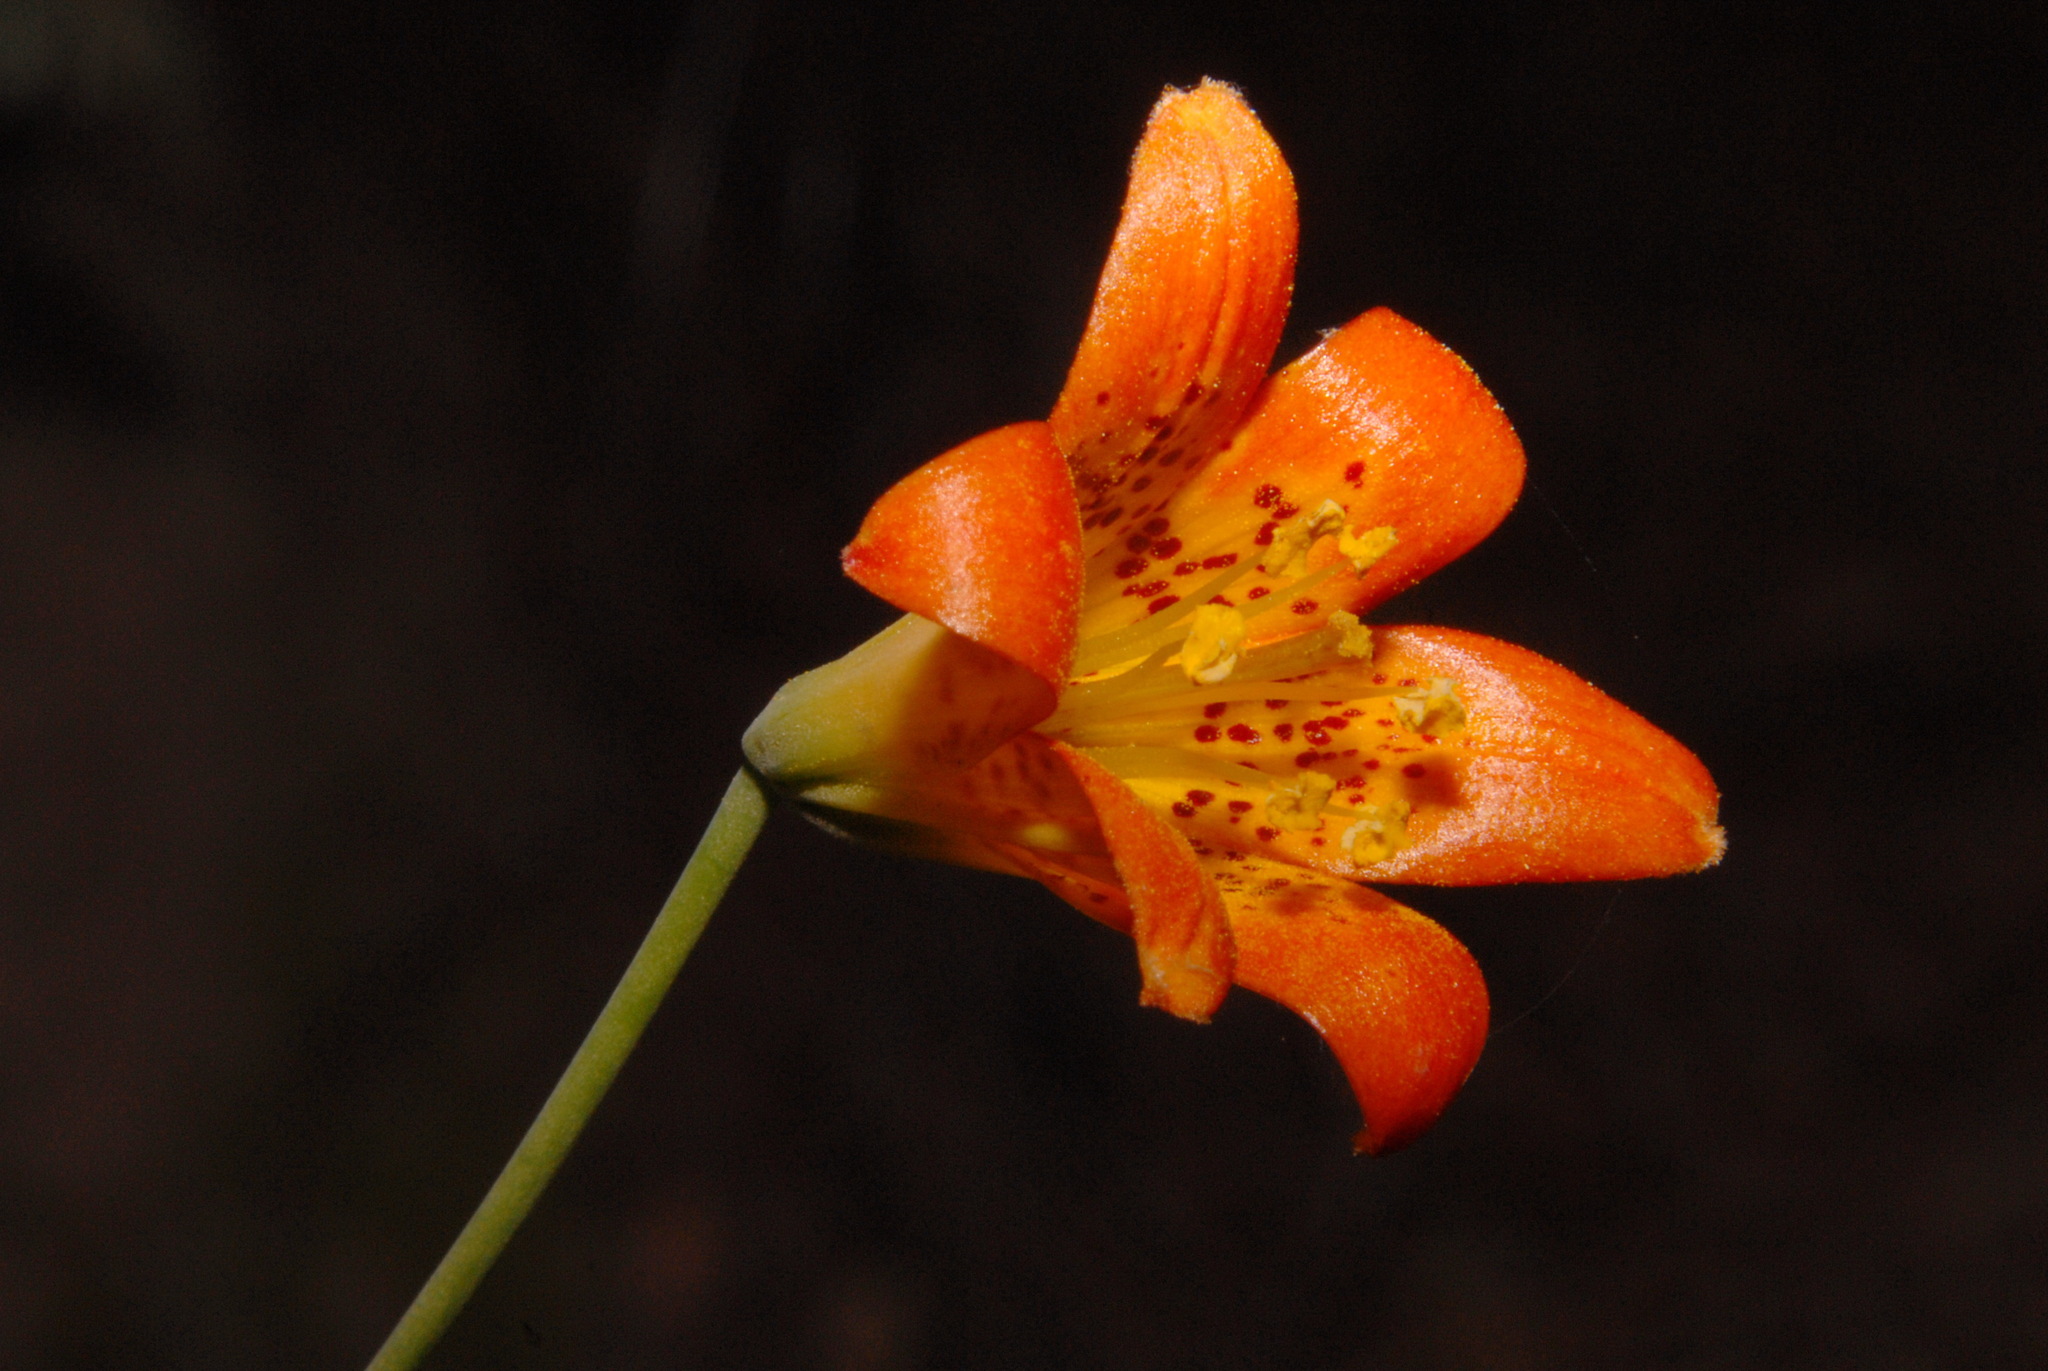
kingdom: Plantae
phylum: Tracheophyta
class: Liliopsida
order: Liliales
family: Liliaceae
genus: Lilium
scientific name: Lilium parvum
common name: Alpine lily
